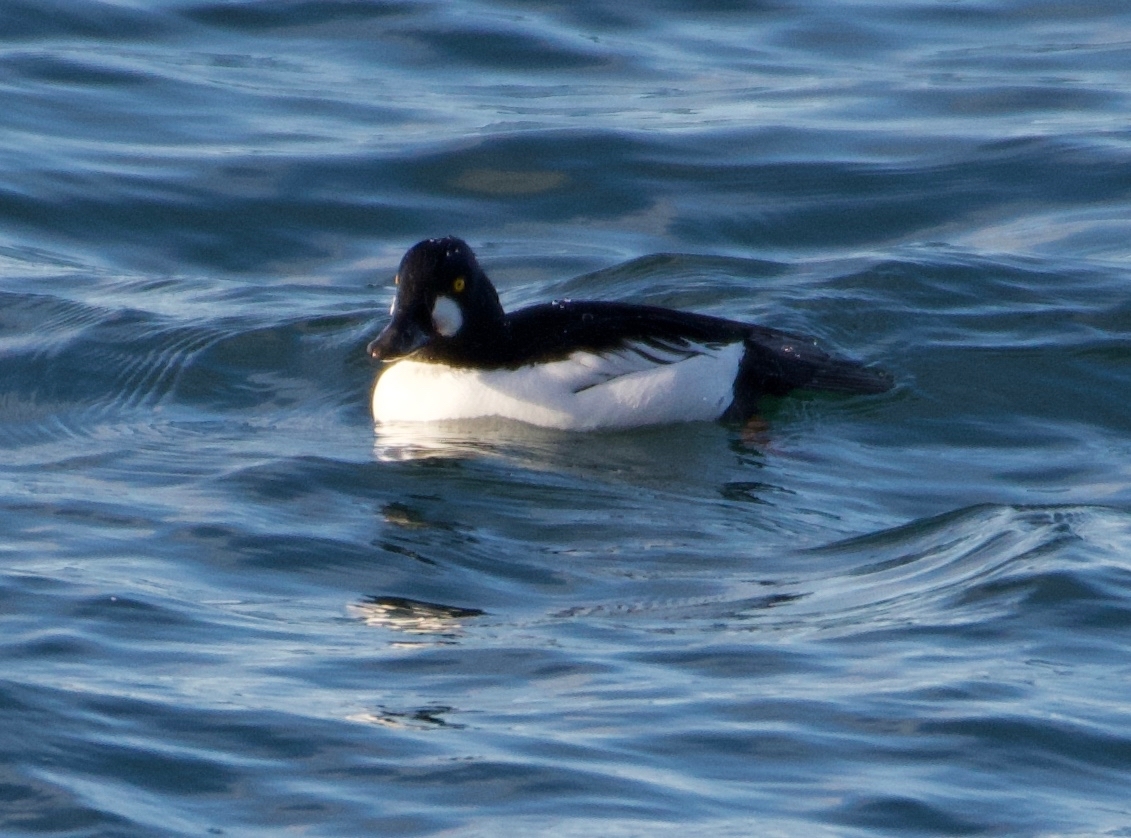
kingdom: Animalia
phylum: Chordata
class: Aves
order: Anseriformes
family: Anatidae
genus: Bucephala
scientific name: Bucephala clangula
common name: Common goldeneye
